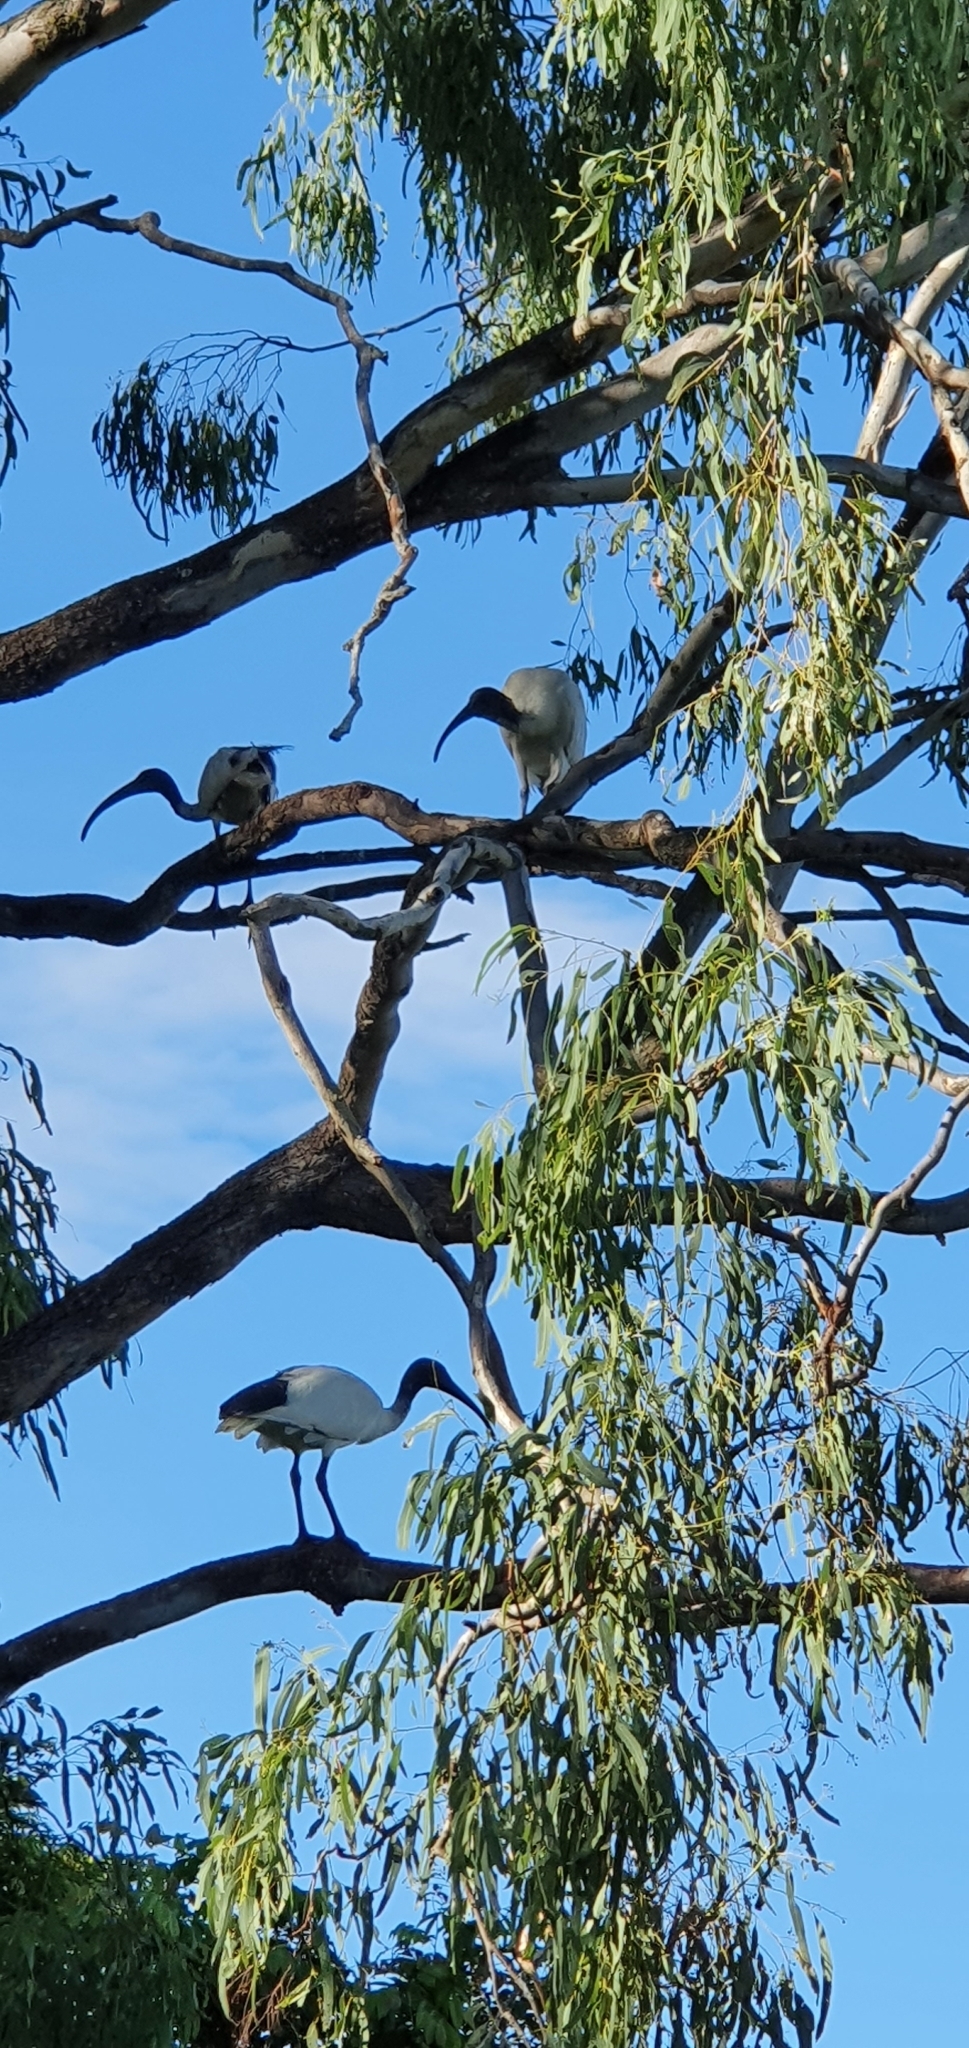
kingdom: Animalia
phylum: Chordata
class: Aves
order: Pelecaniformes
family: Threskiornithidae
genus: Threskiornis
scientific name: Threskiornis molucca
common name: Australian white ibis
